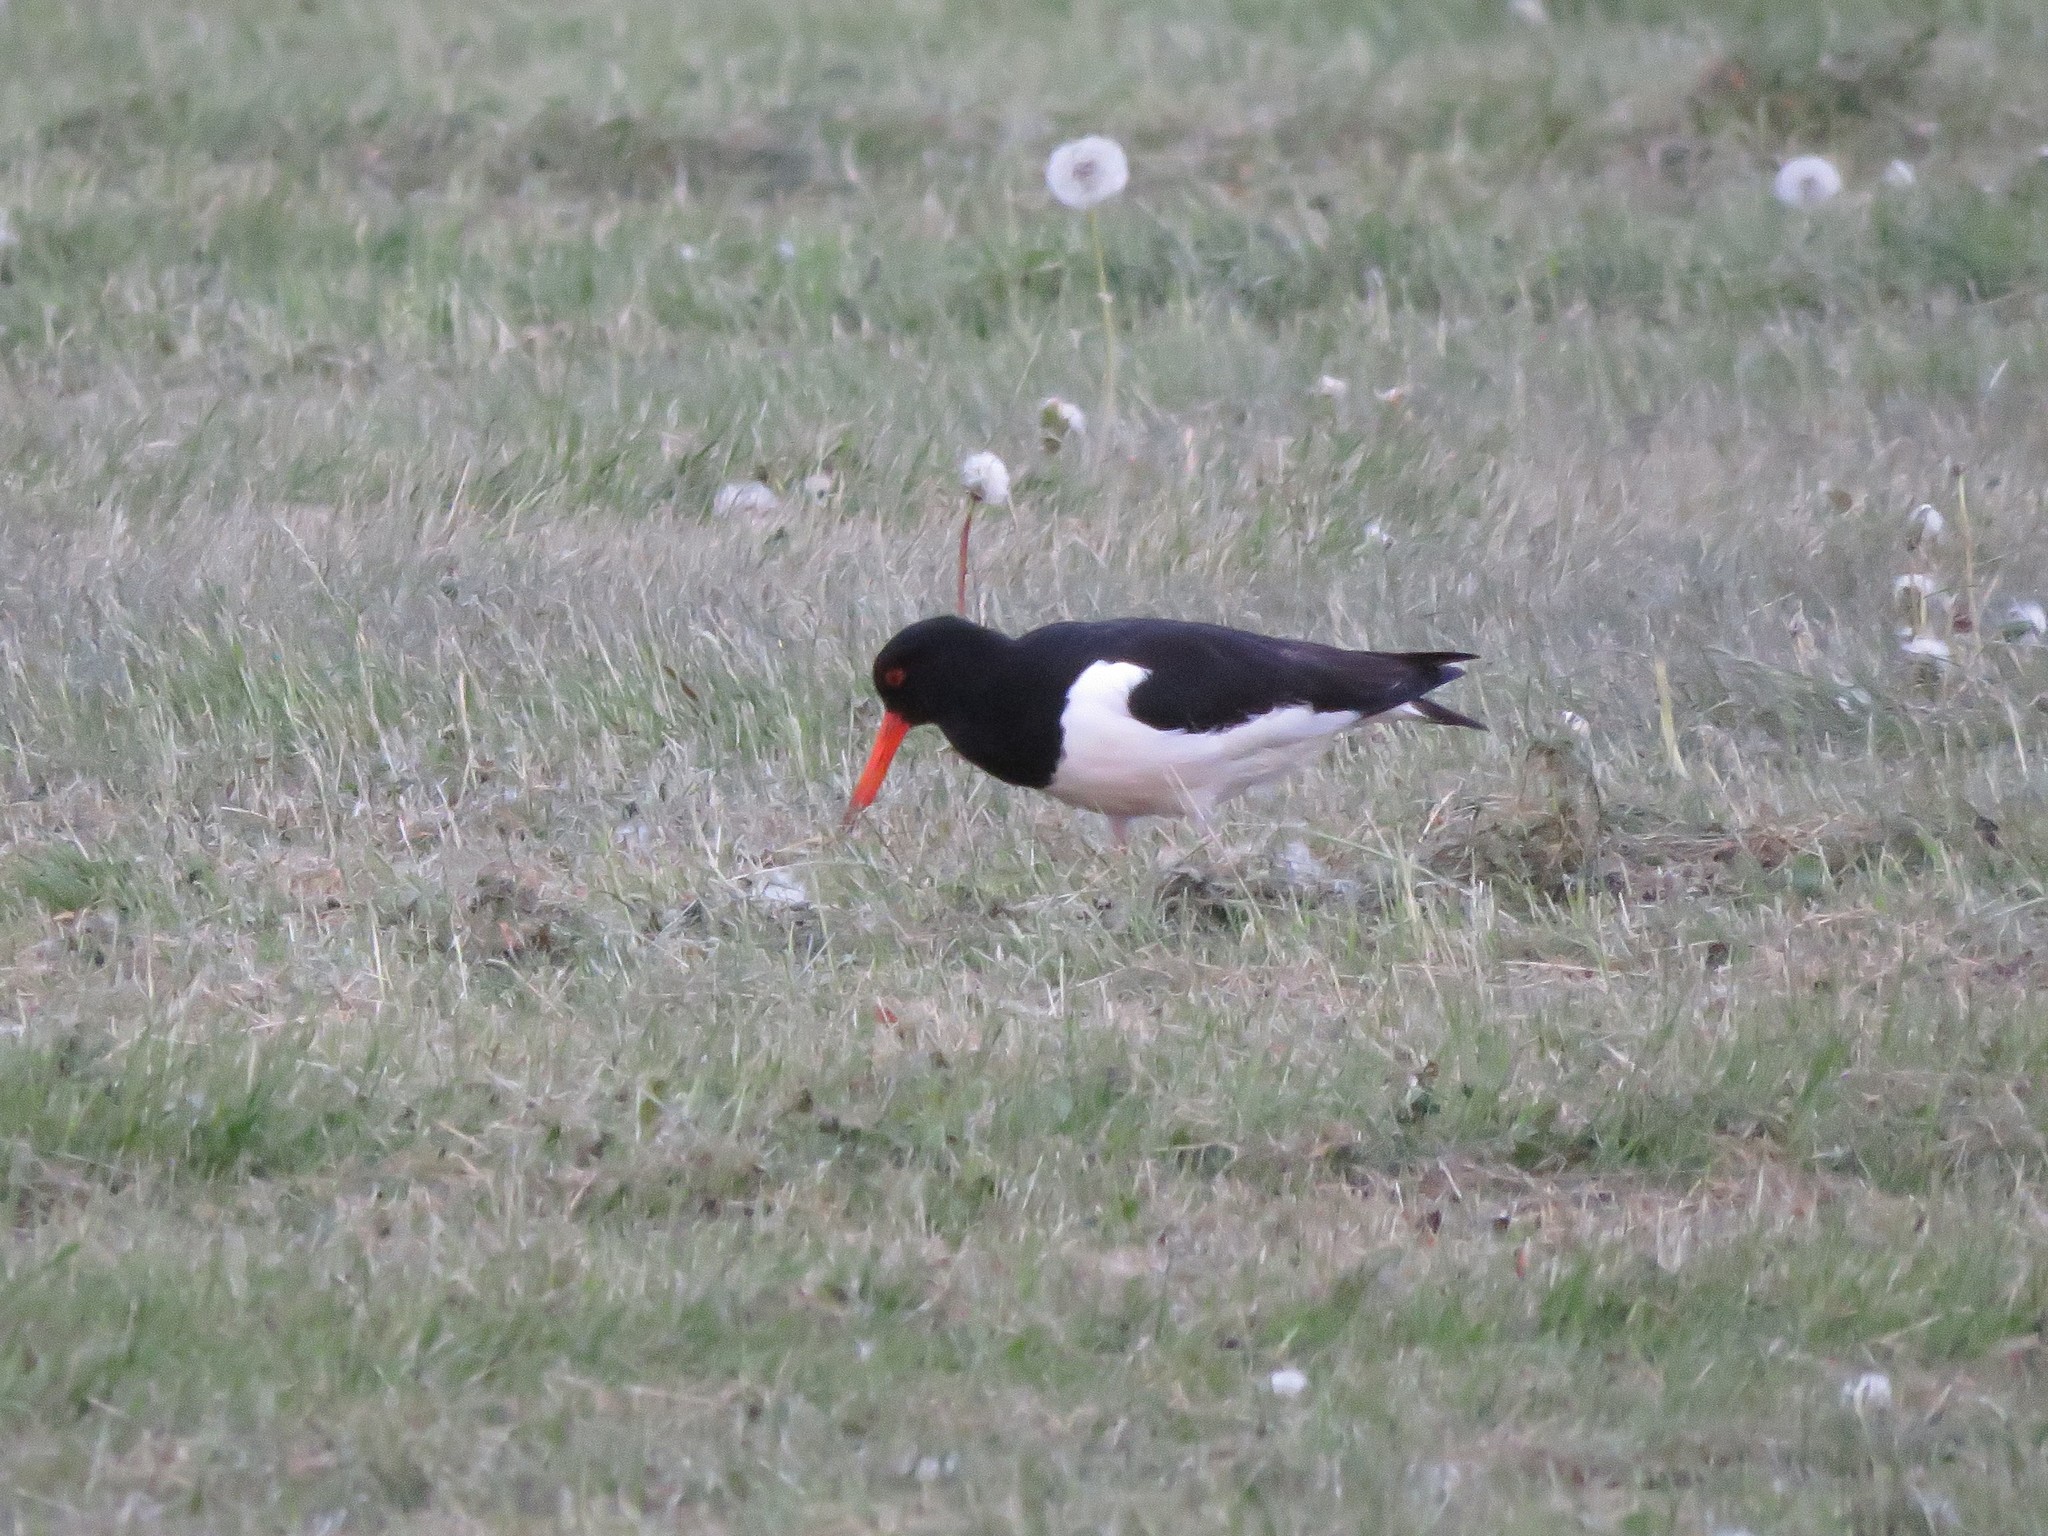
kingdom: Animalia
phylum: Chordata
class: Aves
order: Charadriiformes
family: Haematopodidae
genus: Haematopus
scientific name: Haematopus ostralegus
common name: Eurasian oystercatcher
